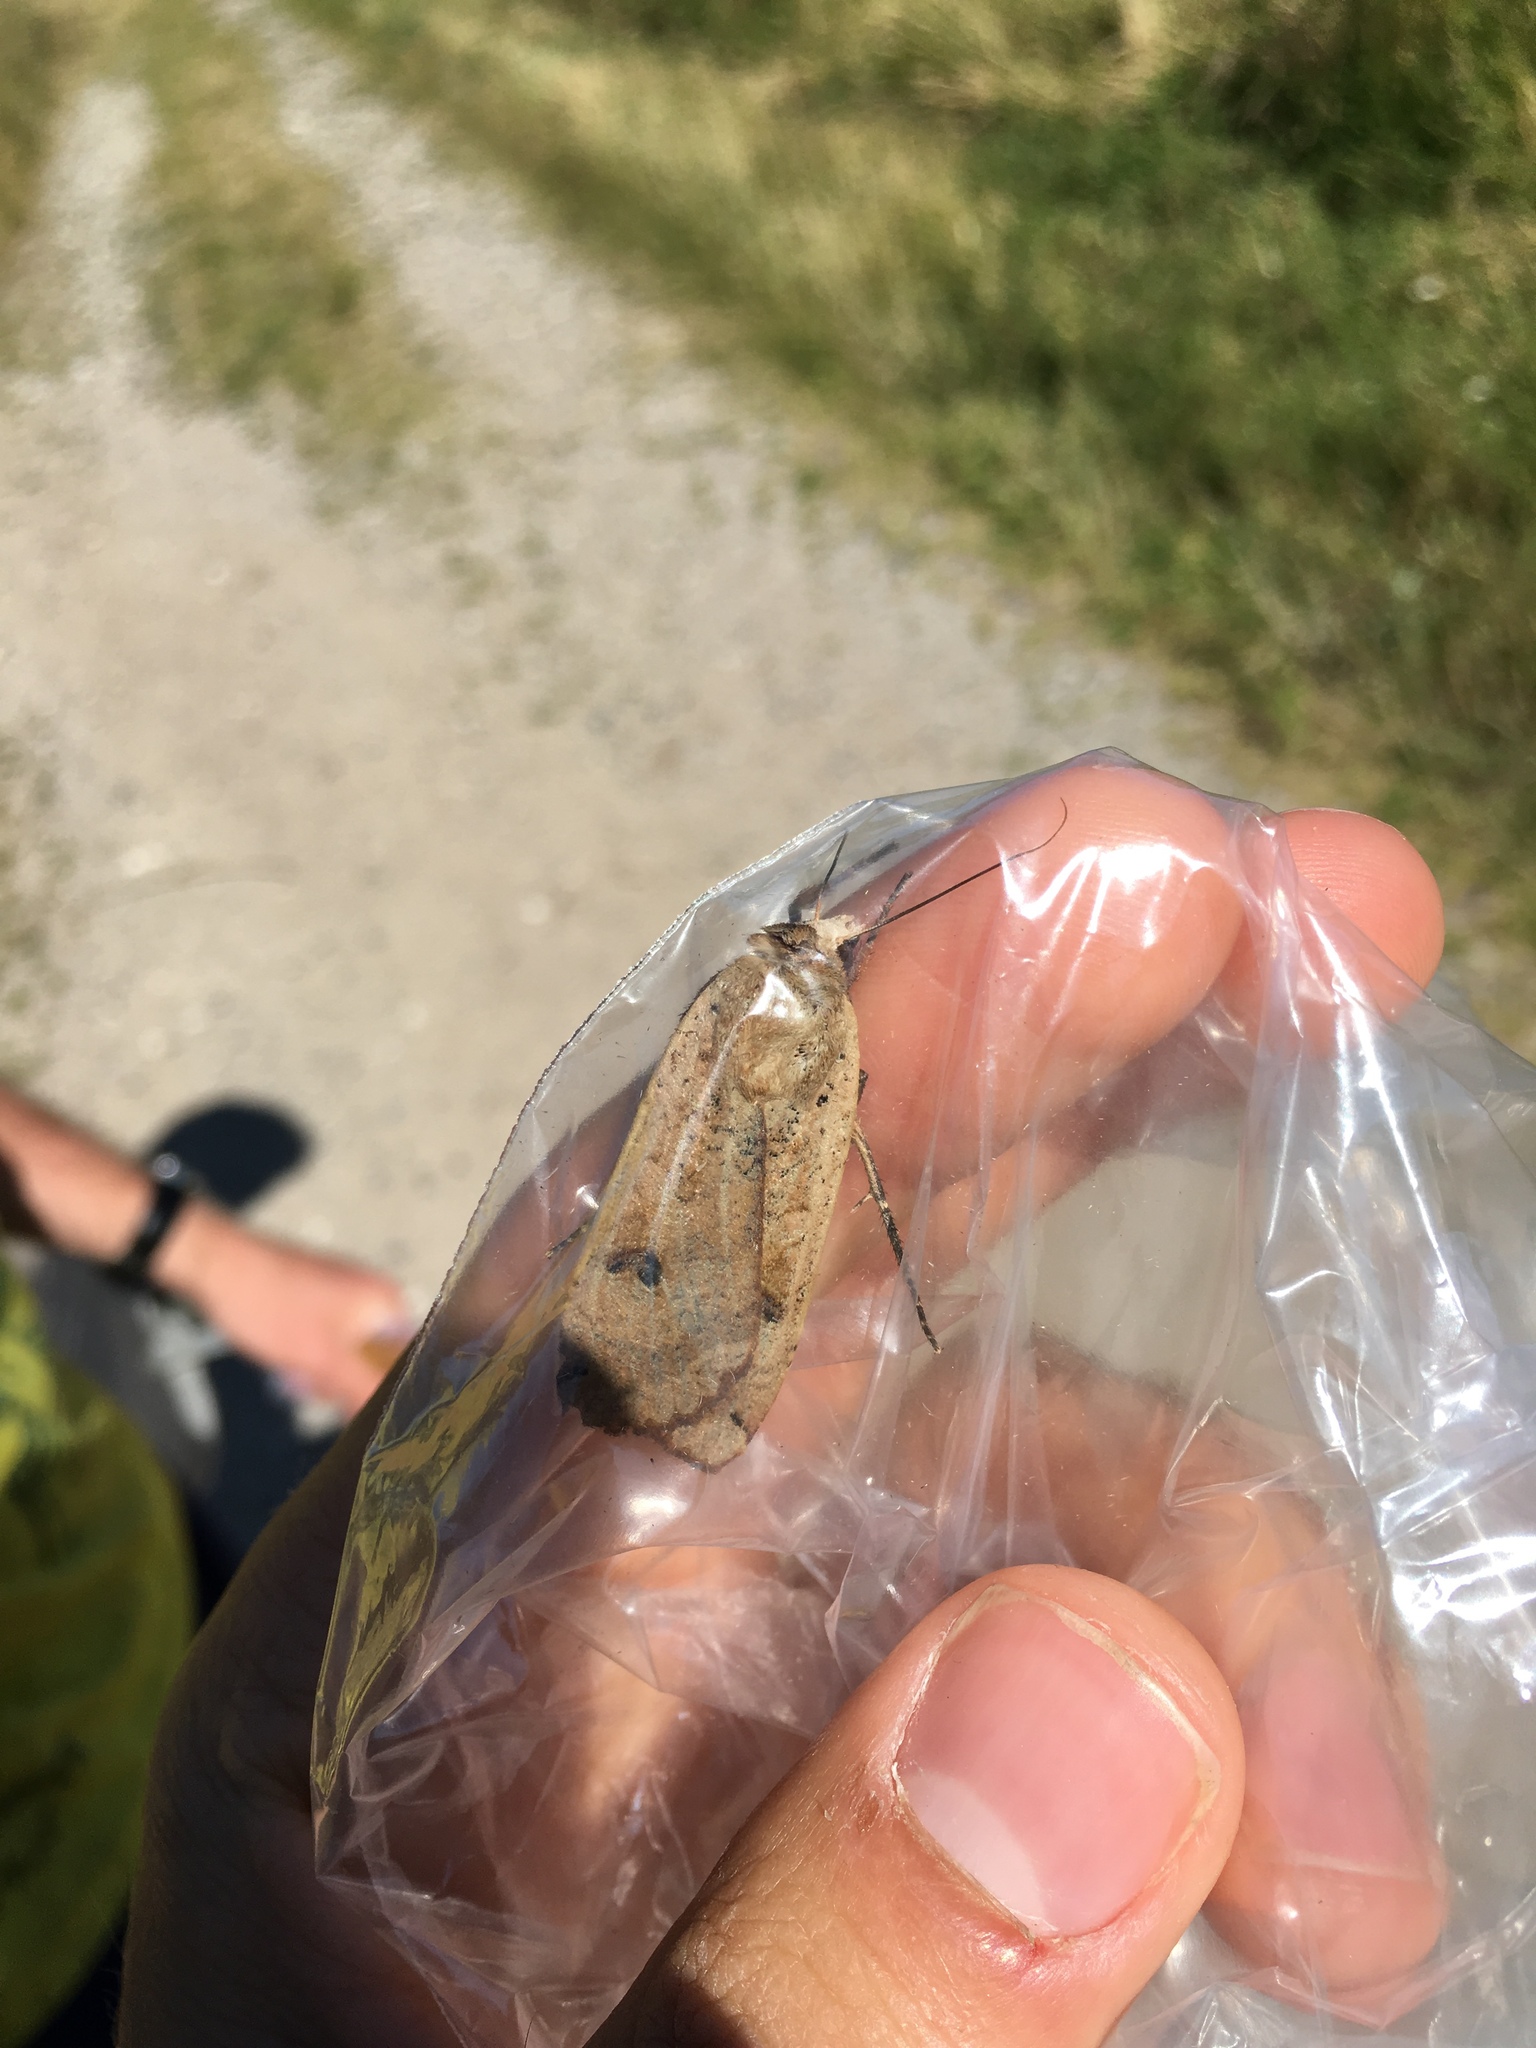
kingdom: Animalia
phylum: Arthropoda
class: Insecta
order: Lepidoptera
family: Noctuidae
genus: Noctua
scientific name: Noctua pronuba
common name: Large yellow underwing
